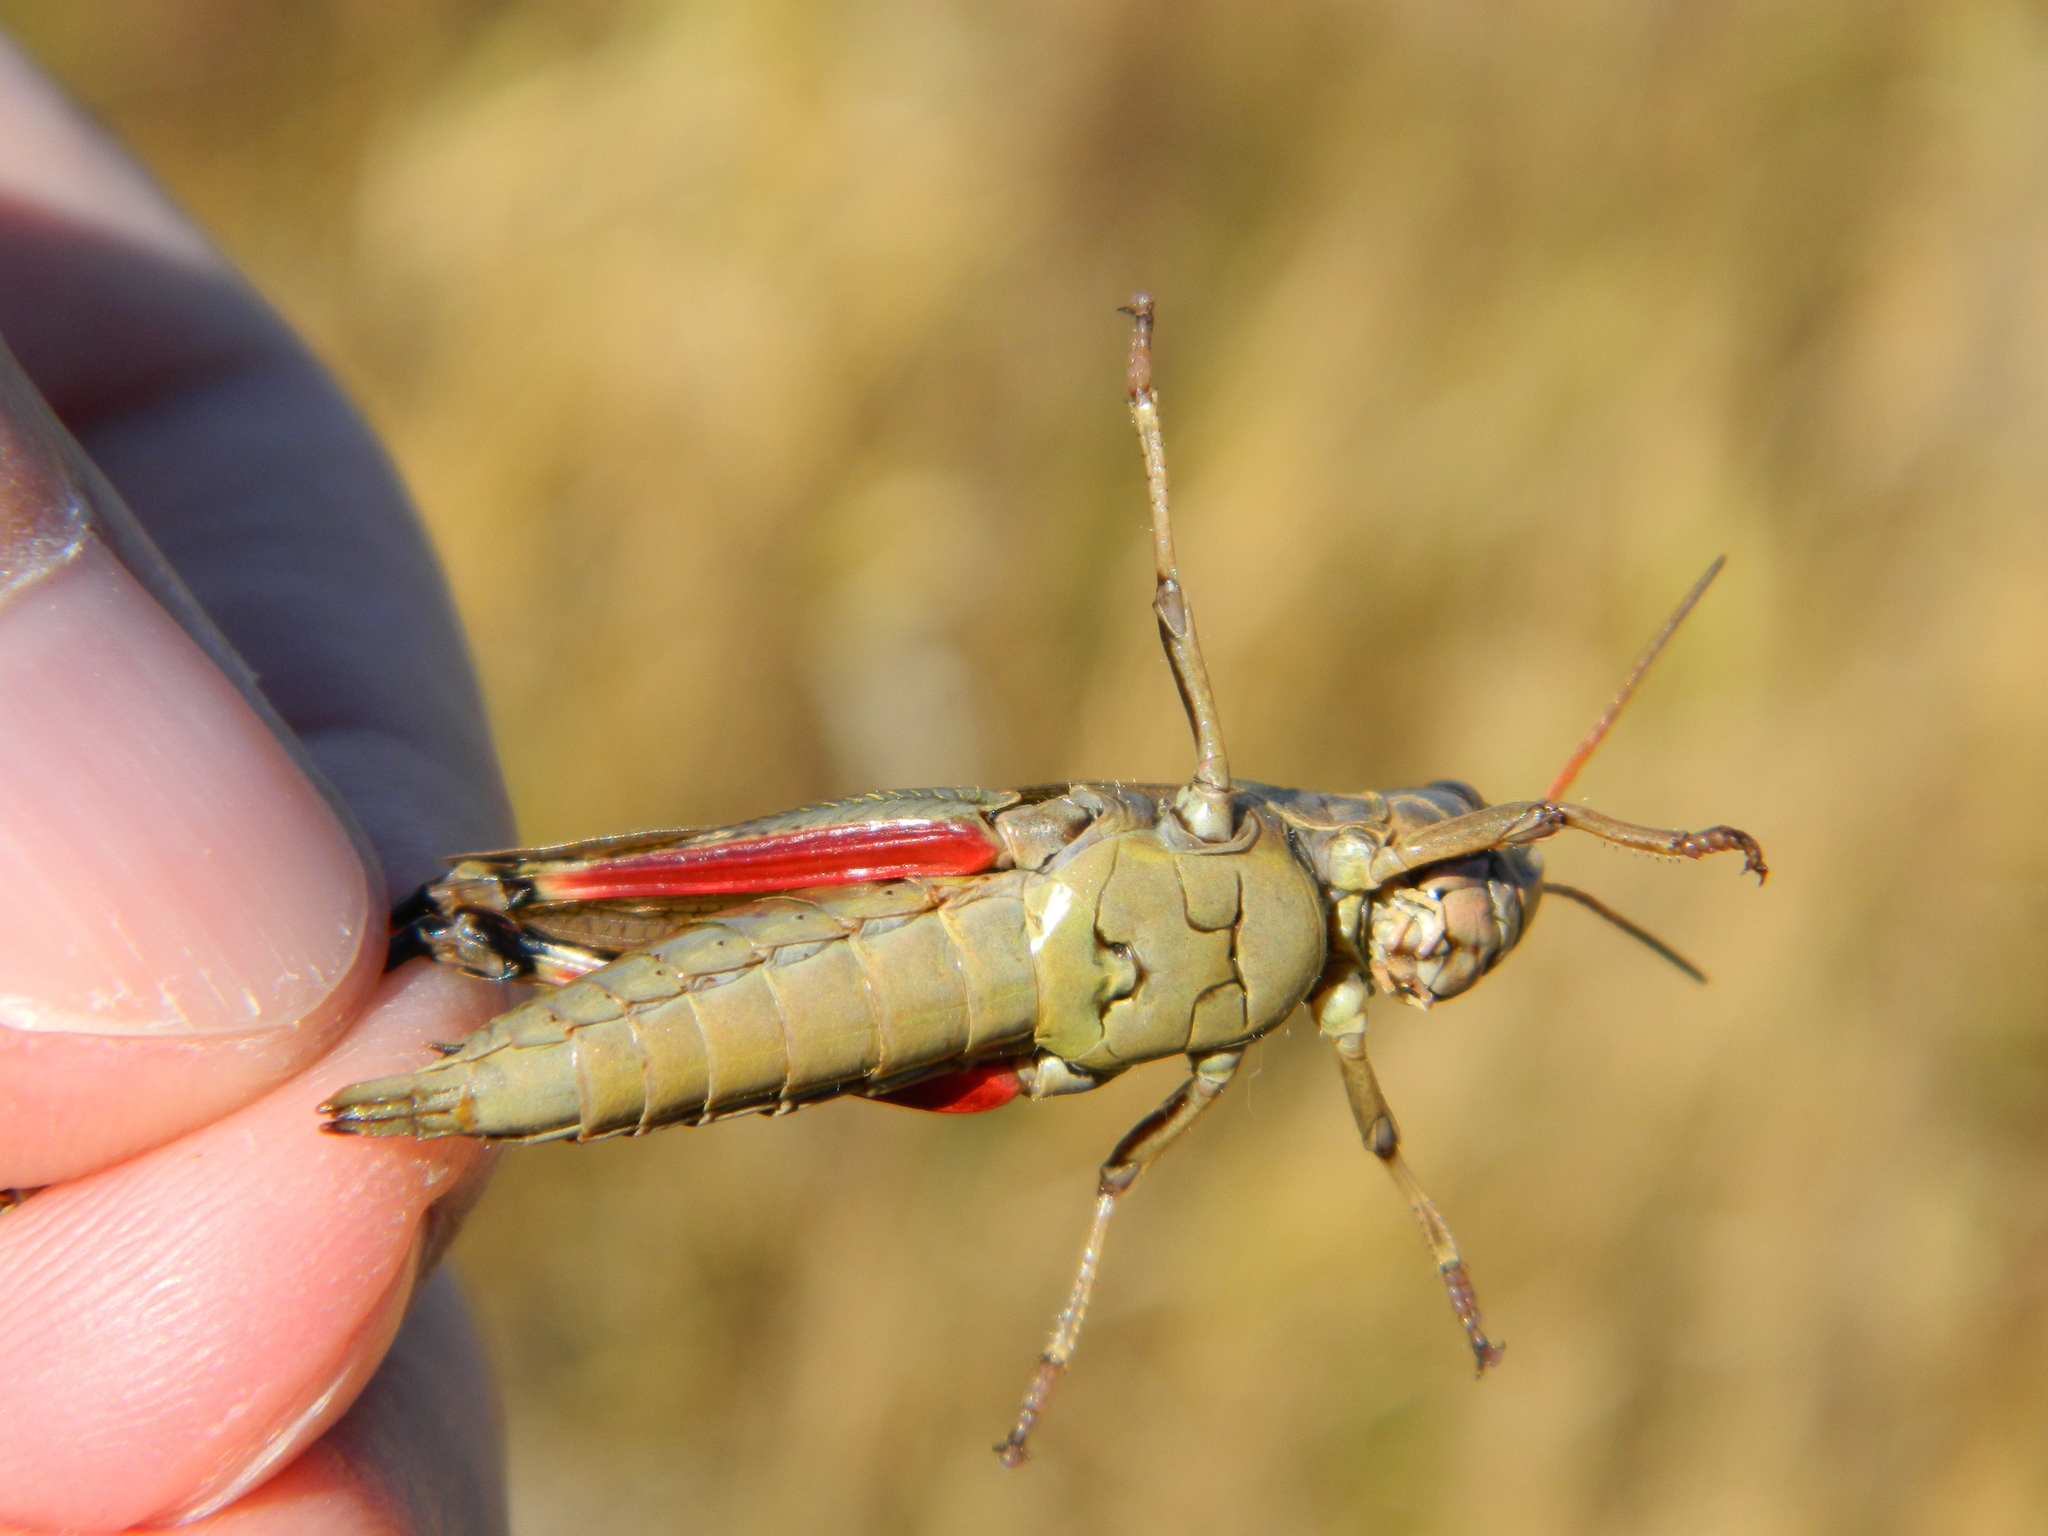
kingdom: Animalia
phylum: Arthropoda
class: Insecta
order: Orthoptera
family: Acrididae
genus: Stethophyma
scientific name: Stethophyma gracile
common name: Graceful sedge grasshopper
